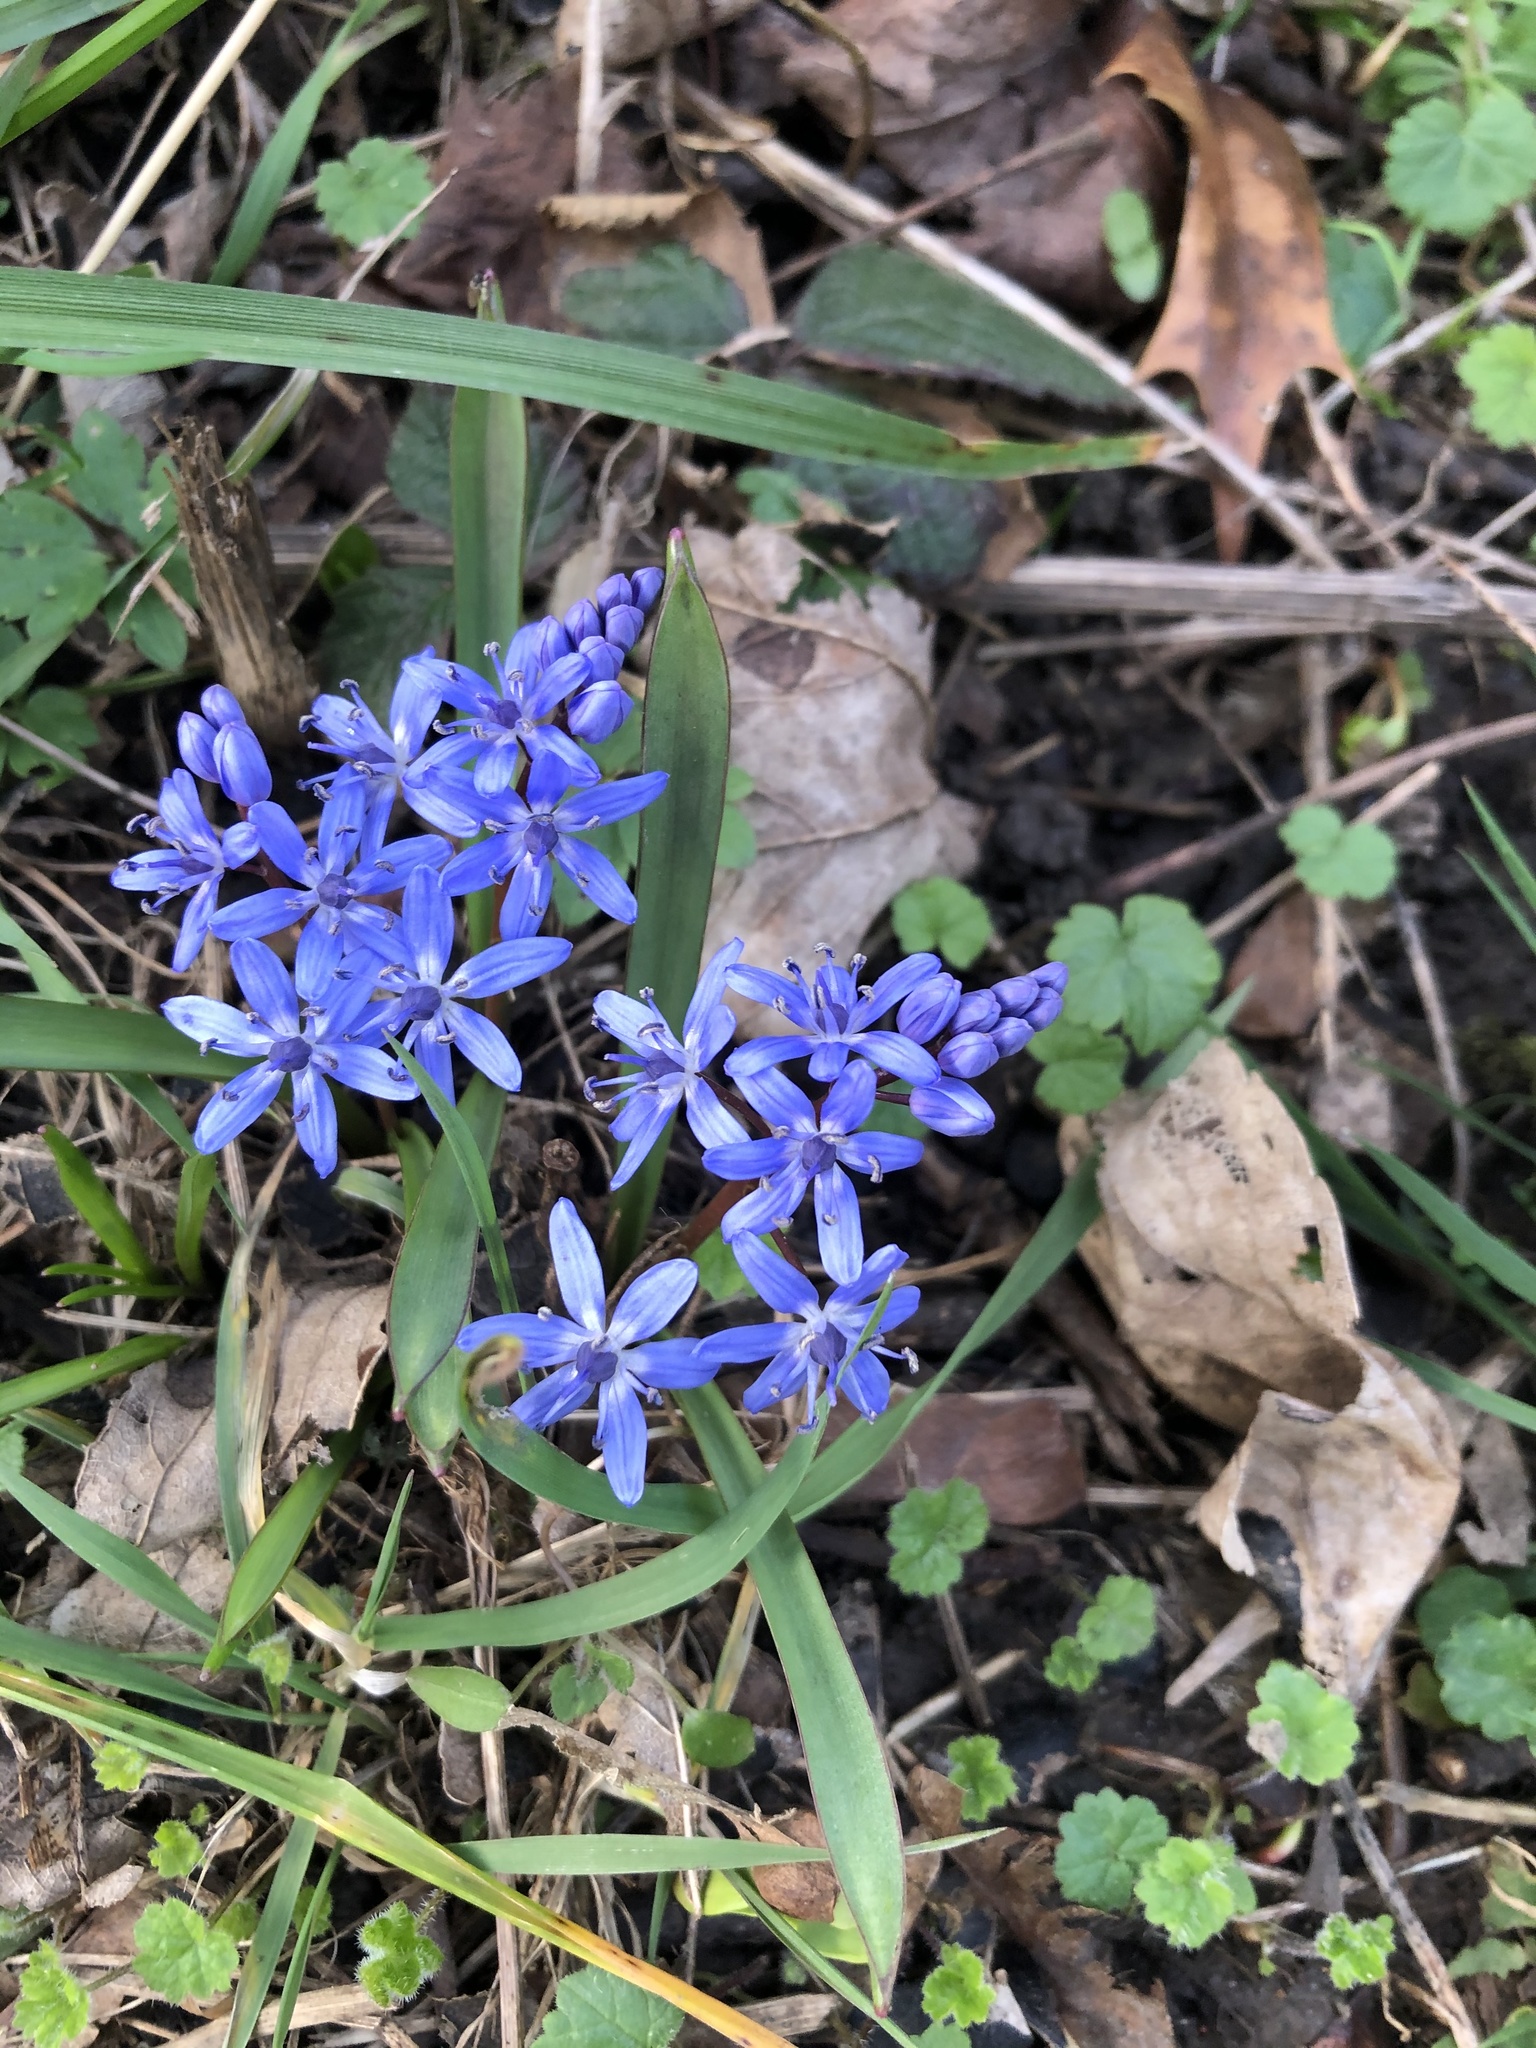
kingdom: Plantae
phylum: Tracheophyta
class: Liliopsida
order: Asparagales
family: Asparagaceae
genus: Scilla
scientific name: Scilla bifolia
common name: Alpine squill
